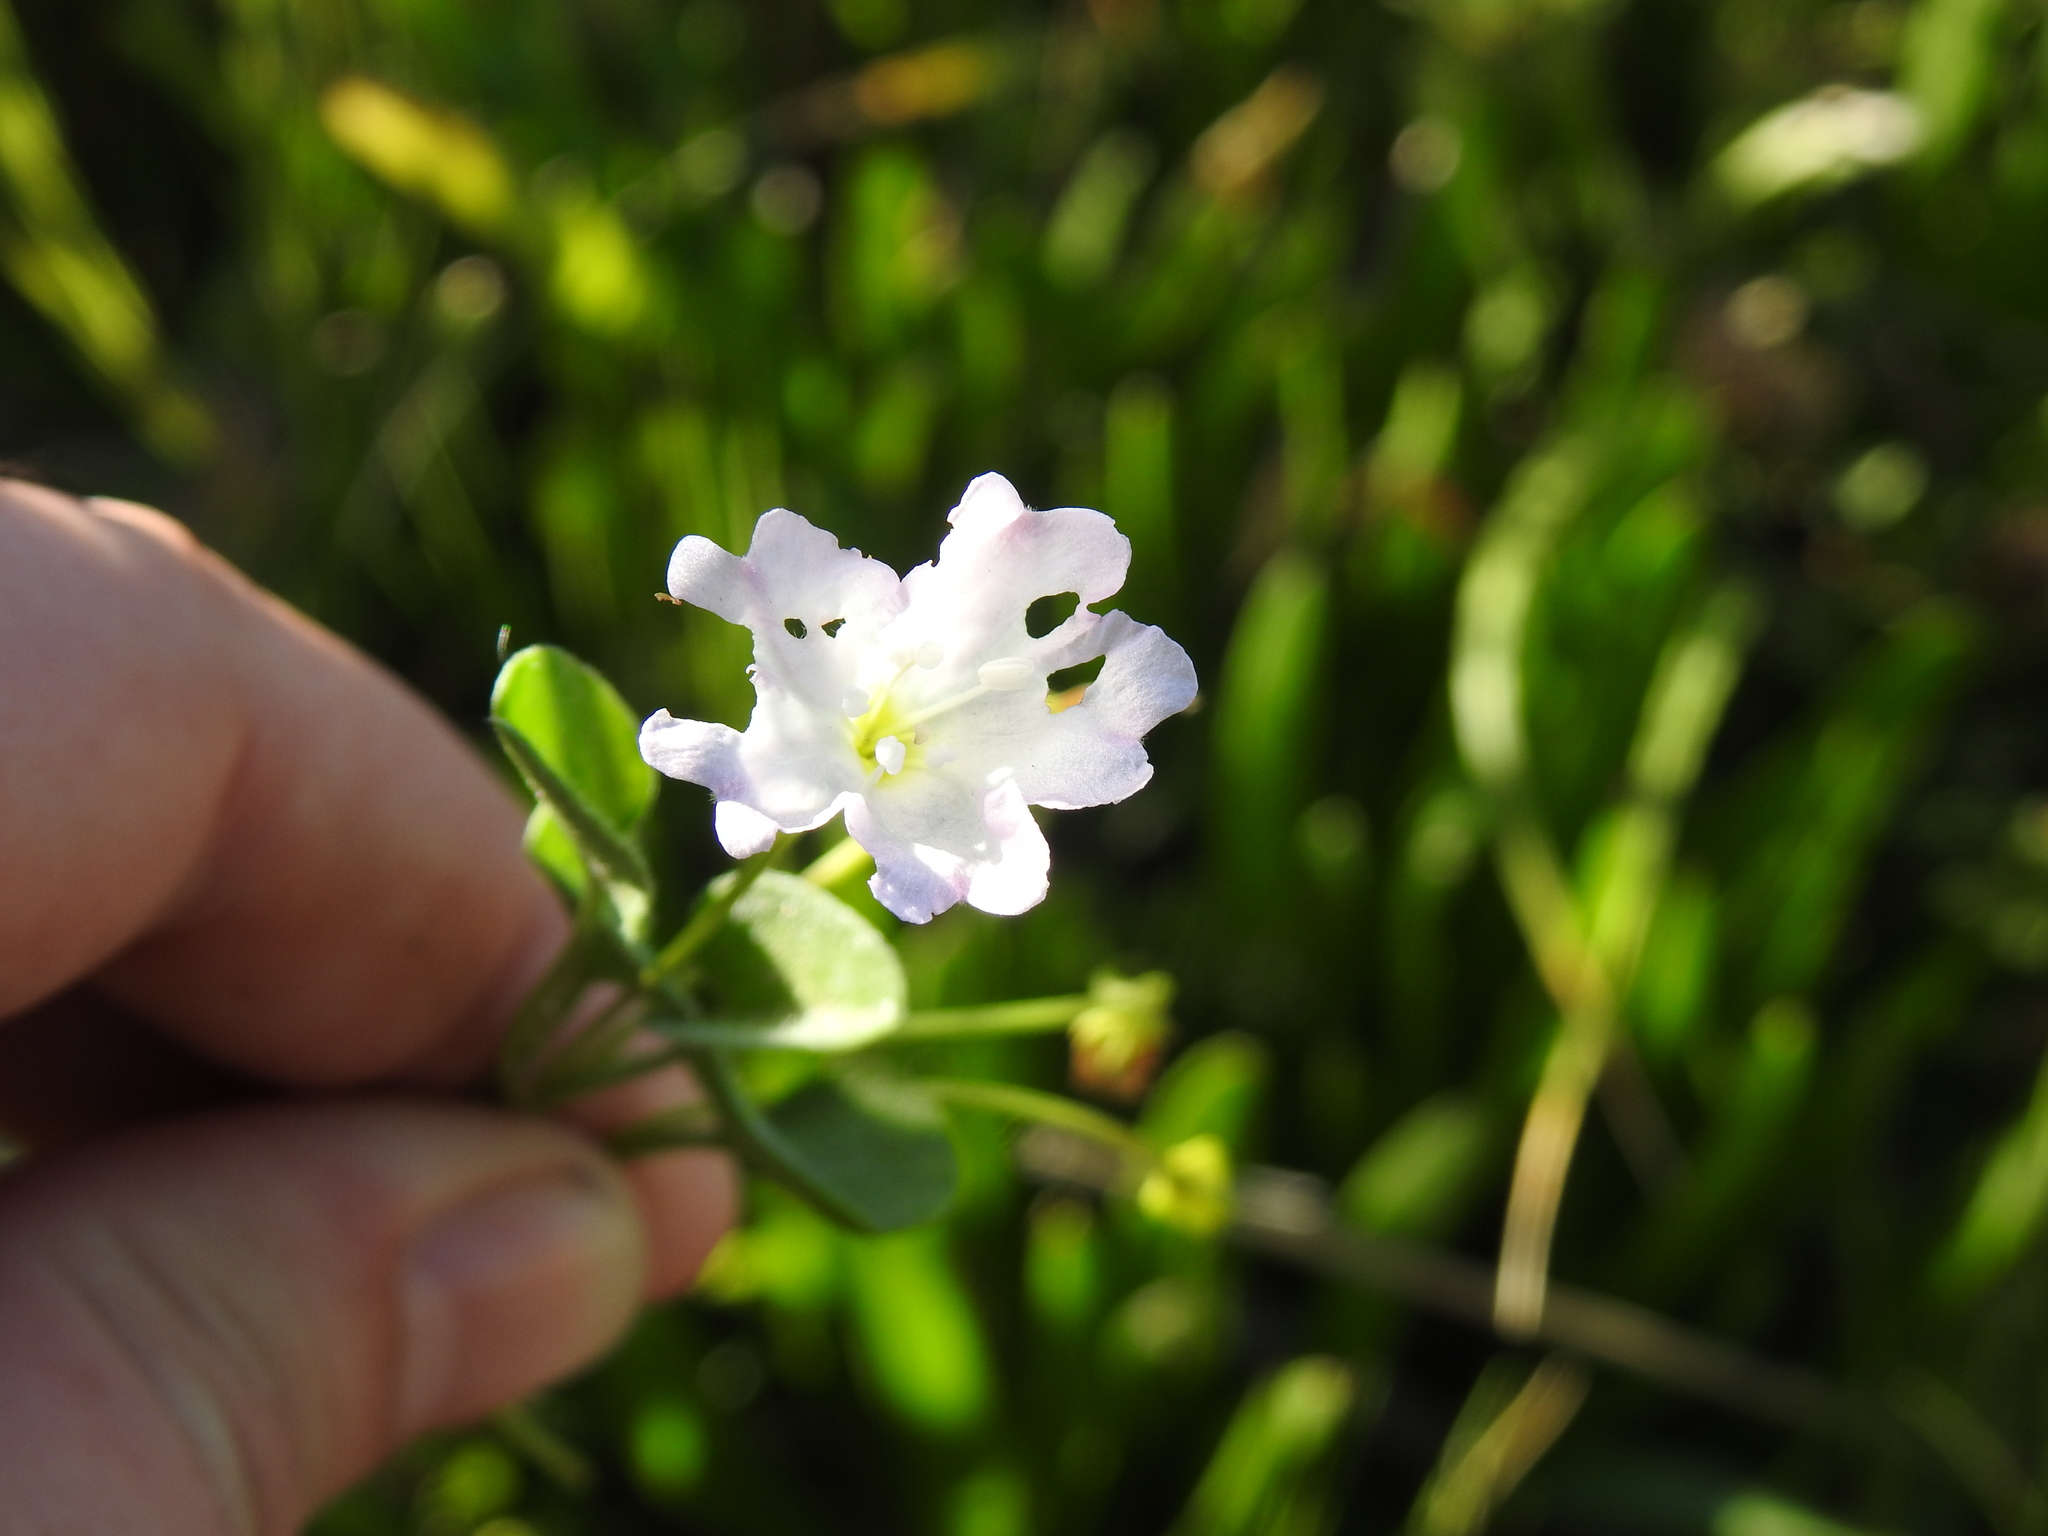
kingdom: Plantae
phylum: Tracheophyta
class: Magnoliopsida
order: Solanales
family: Convolvulaceae
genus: Falkia
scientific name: Falkia repens
